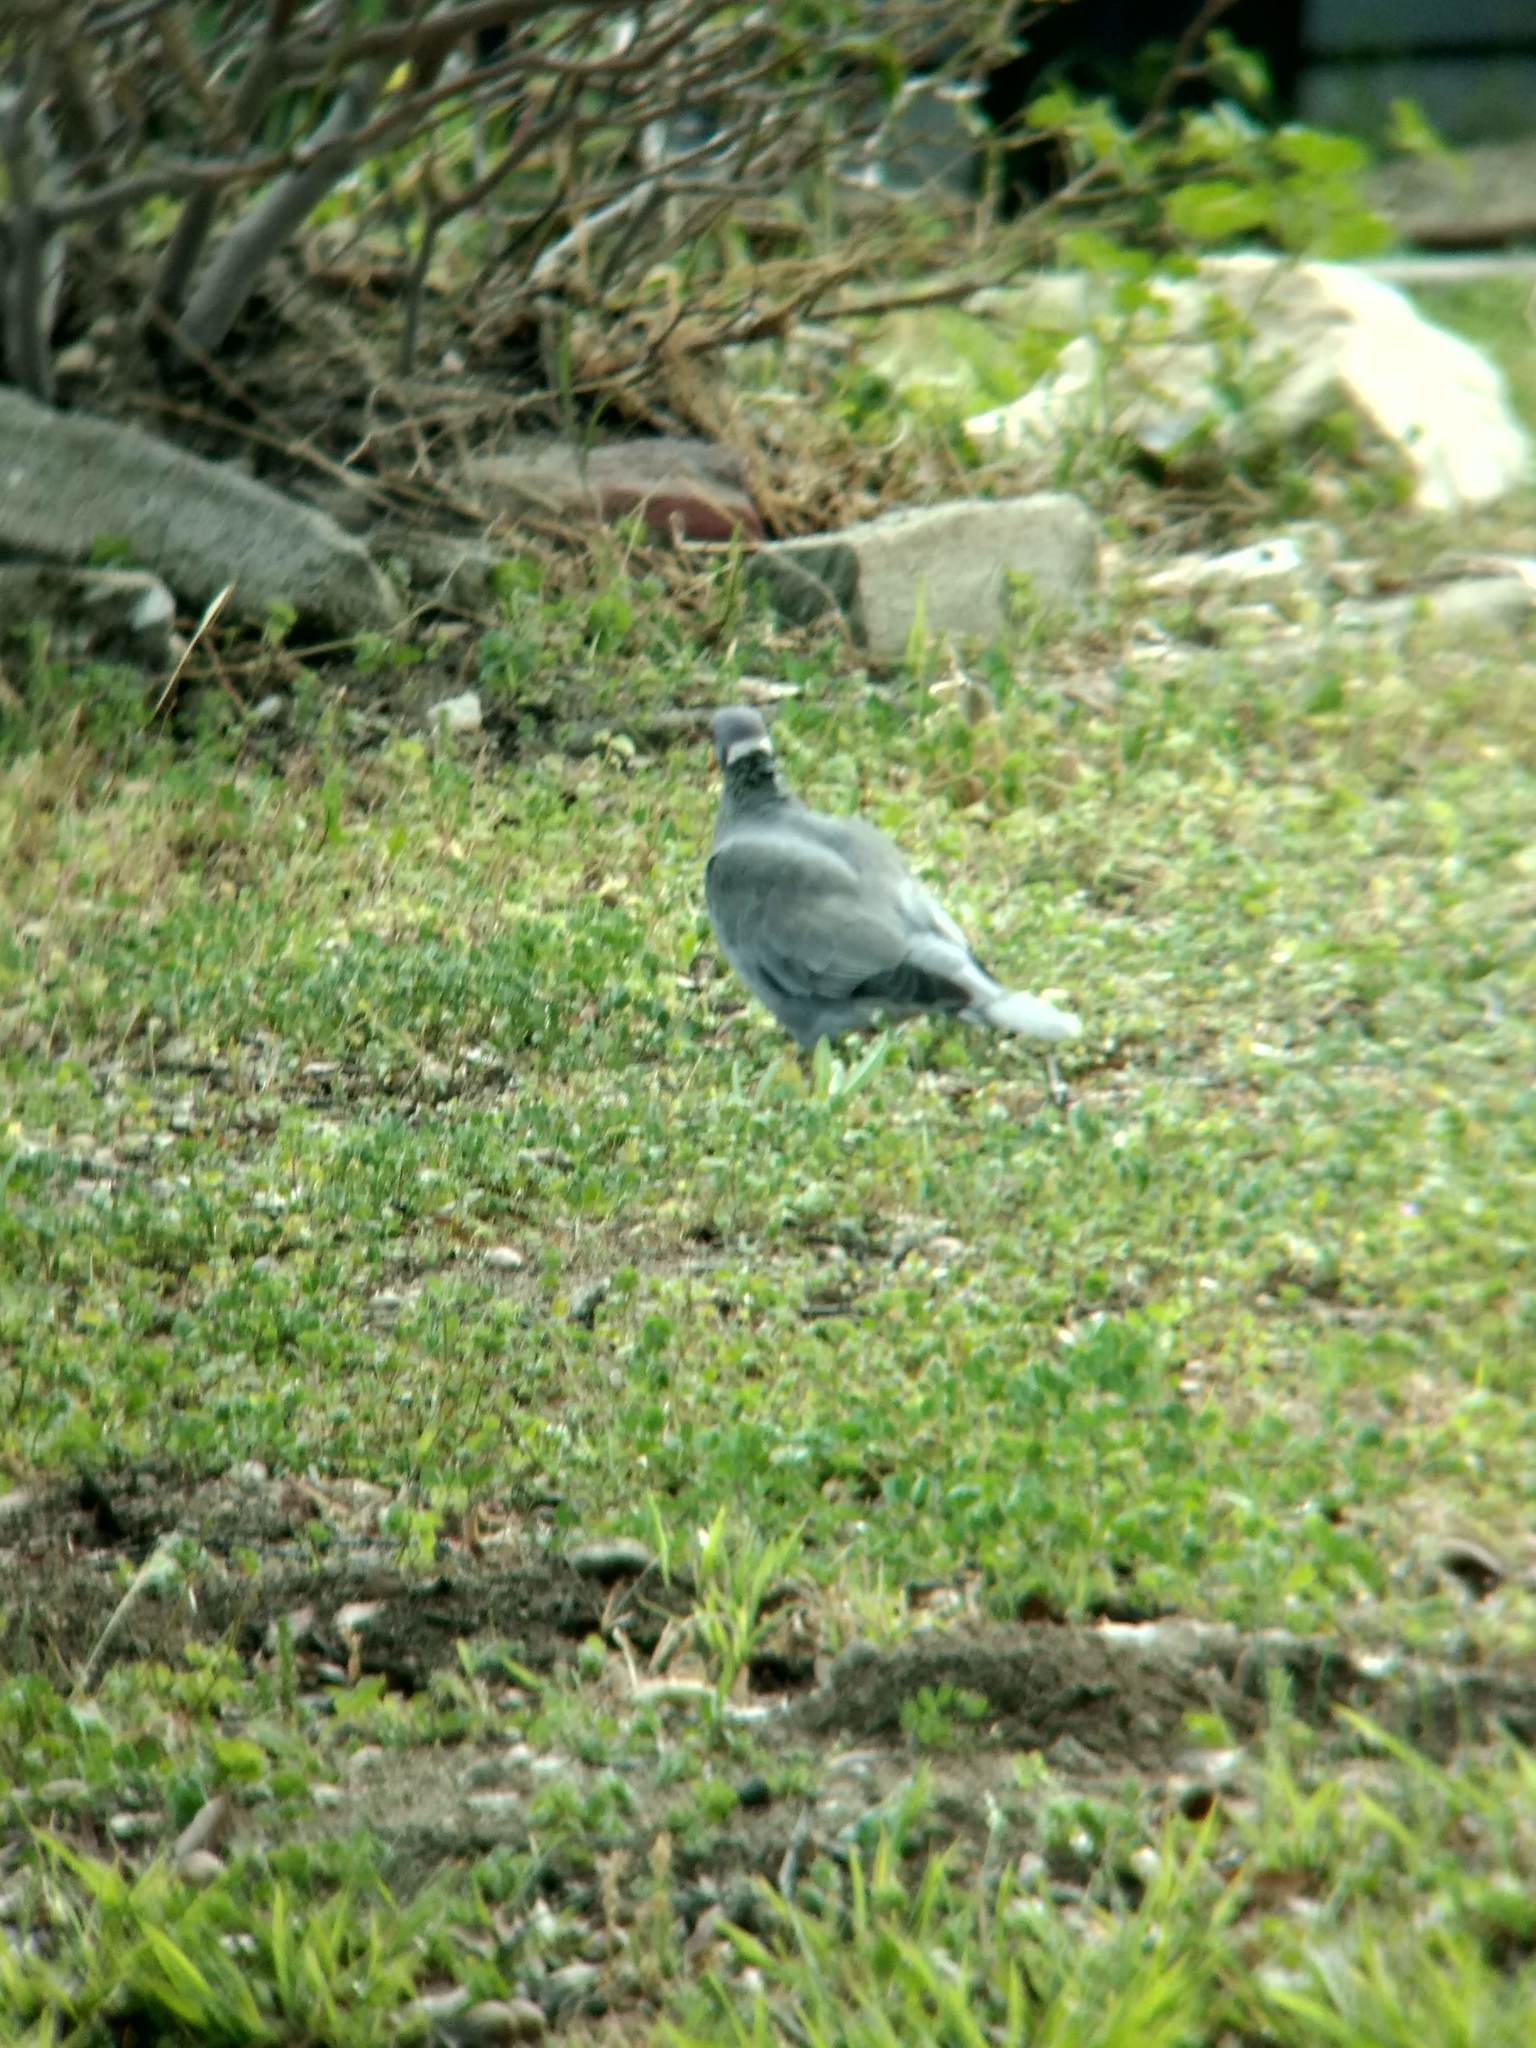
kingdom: Animalia
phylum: Chordata
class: Aves
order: Columbiformes
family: Columbidae
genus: Patagioenas
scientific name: Patagioenas fasciata
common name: Band-tailed pigeon
